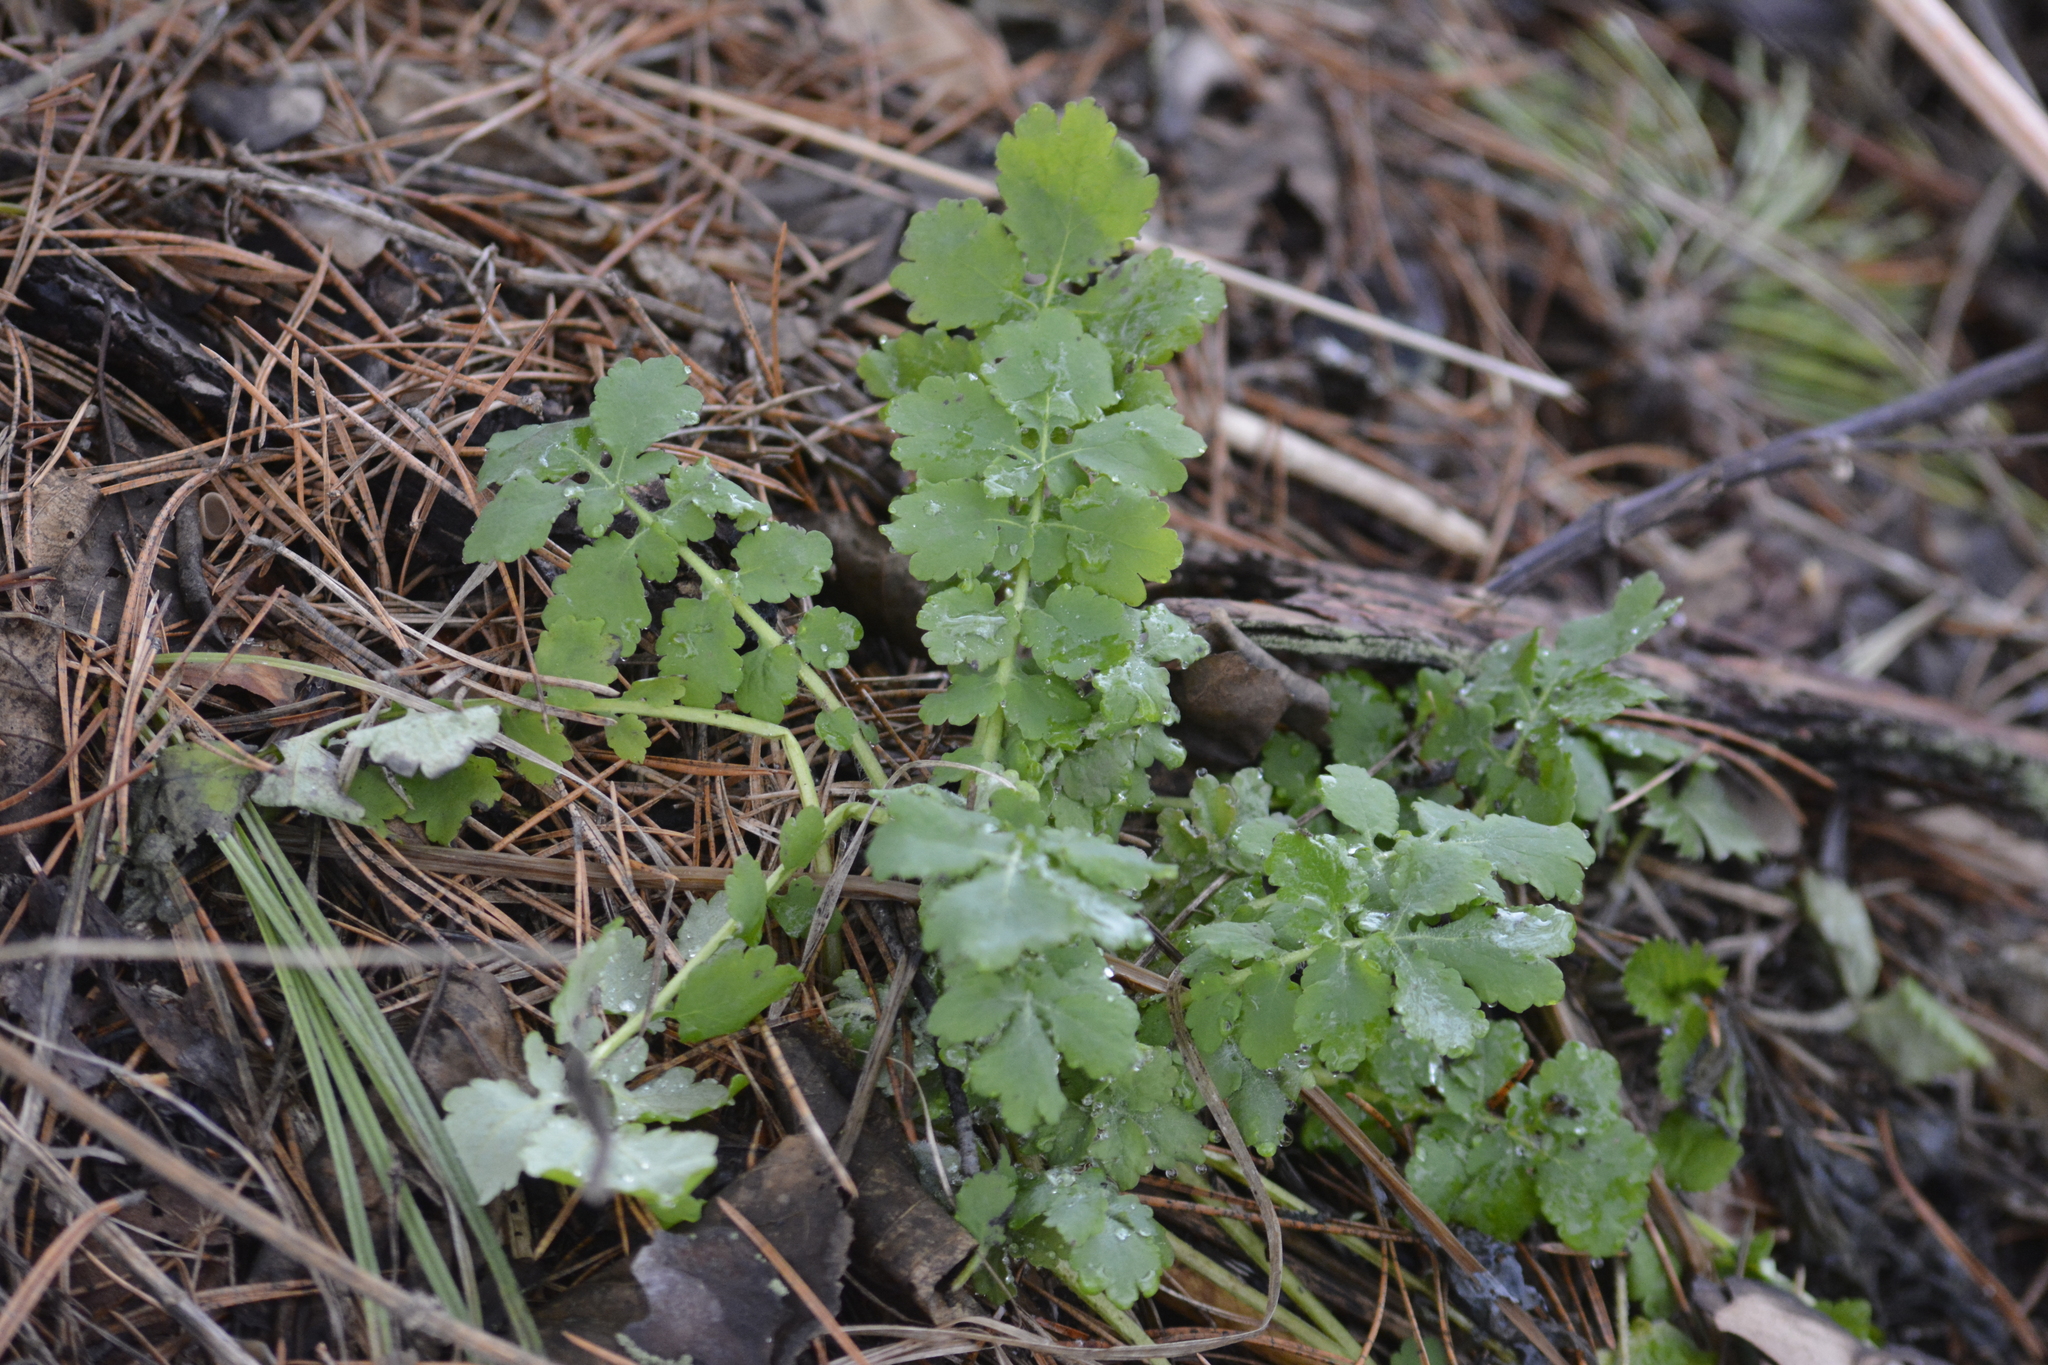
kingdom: Plantae
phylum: Tracheophyta
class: Magnoliopsida
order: Ranunculales
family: Papaveraceae
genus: Chelidonium
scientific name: Chelidonium majus
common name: Greater celandine
